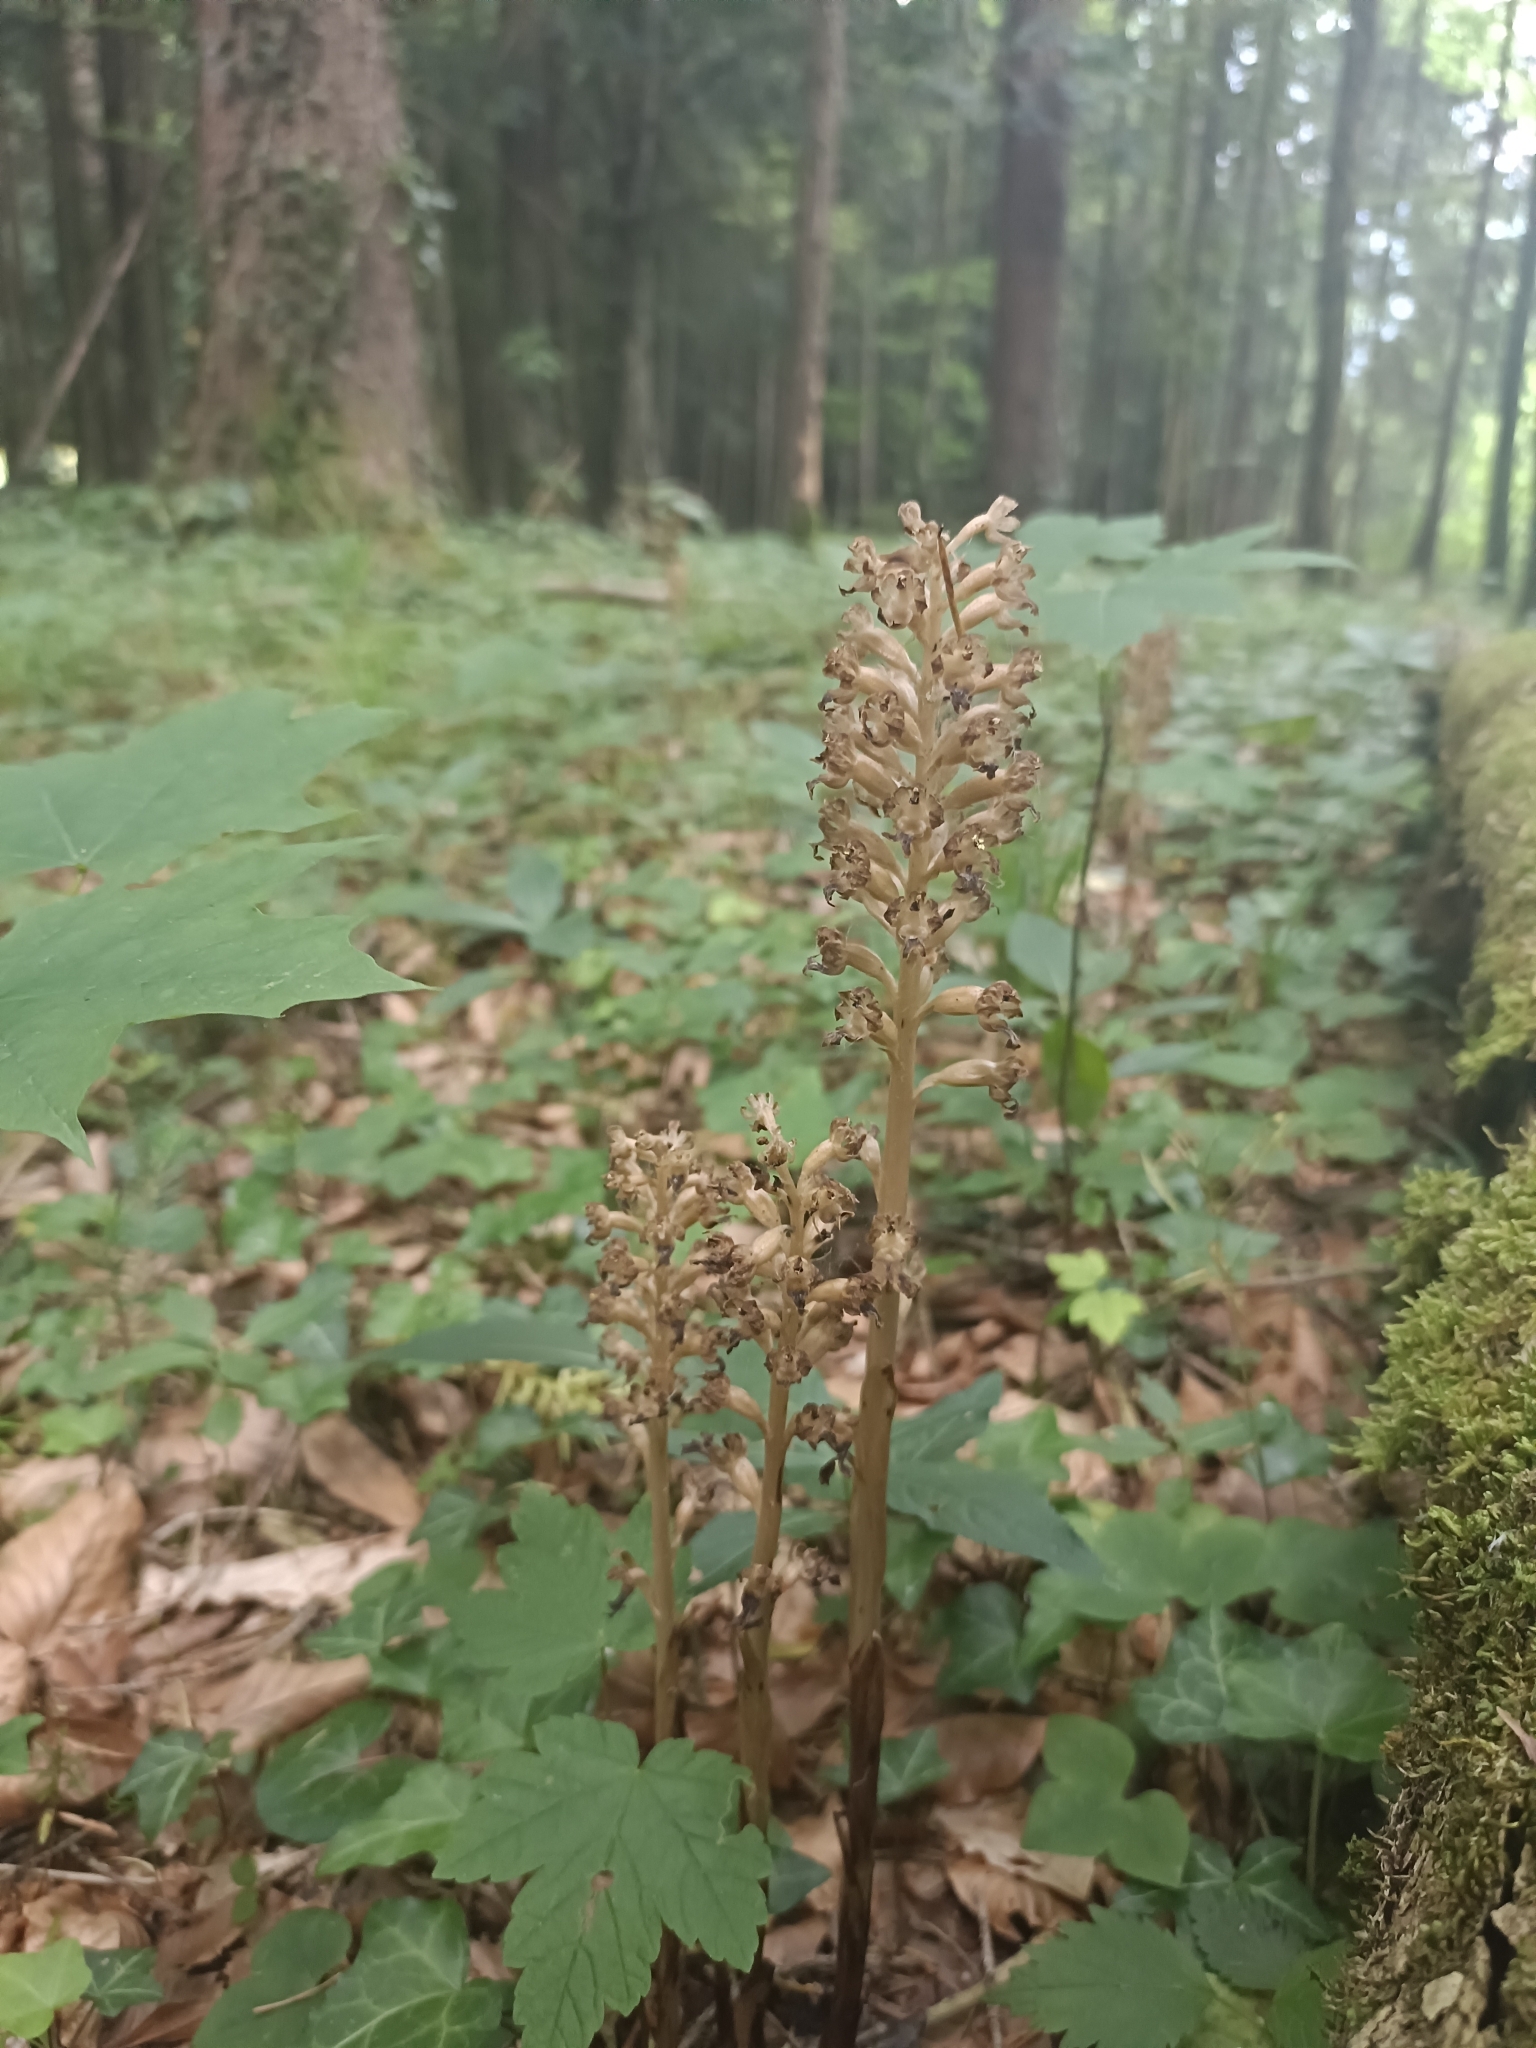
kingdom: Plantae
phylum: Tracheophyta
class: Liliopsida
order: Asparagales
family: Orchidaceae
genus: Neottia
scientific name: Neottia nidus-avis
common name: Bird's-nest orchid
